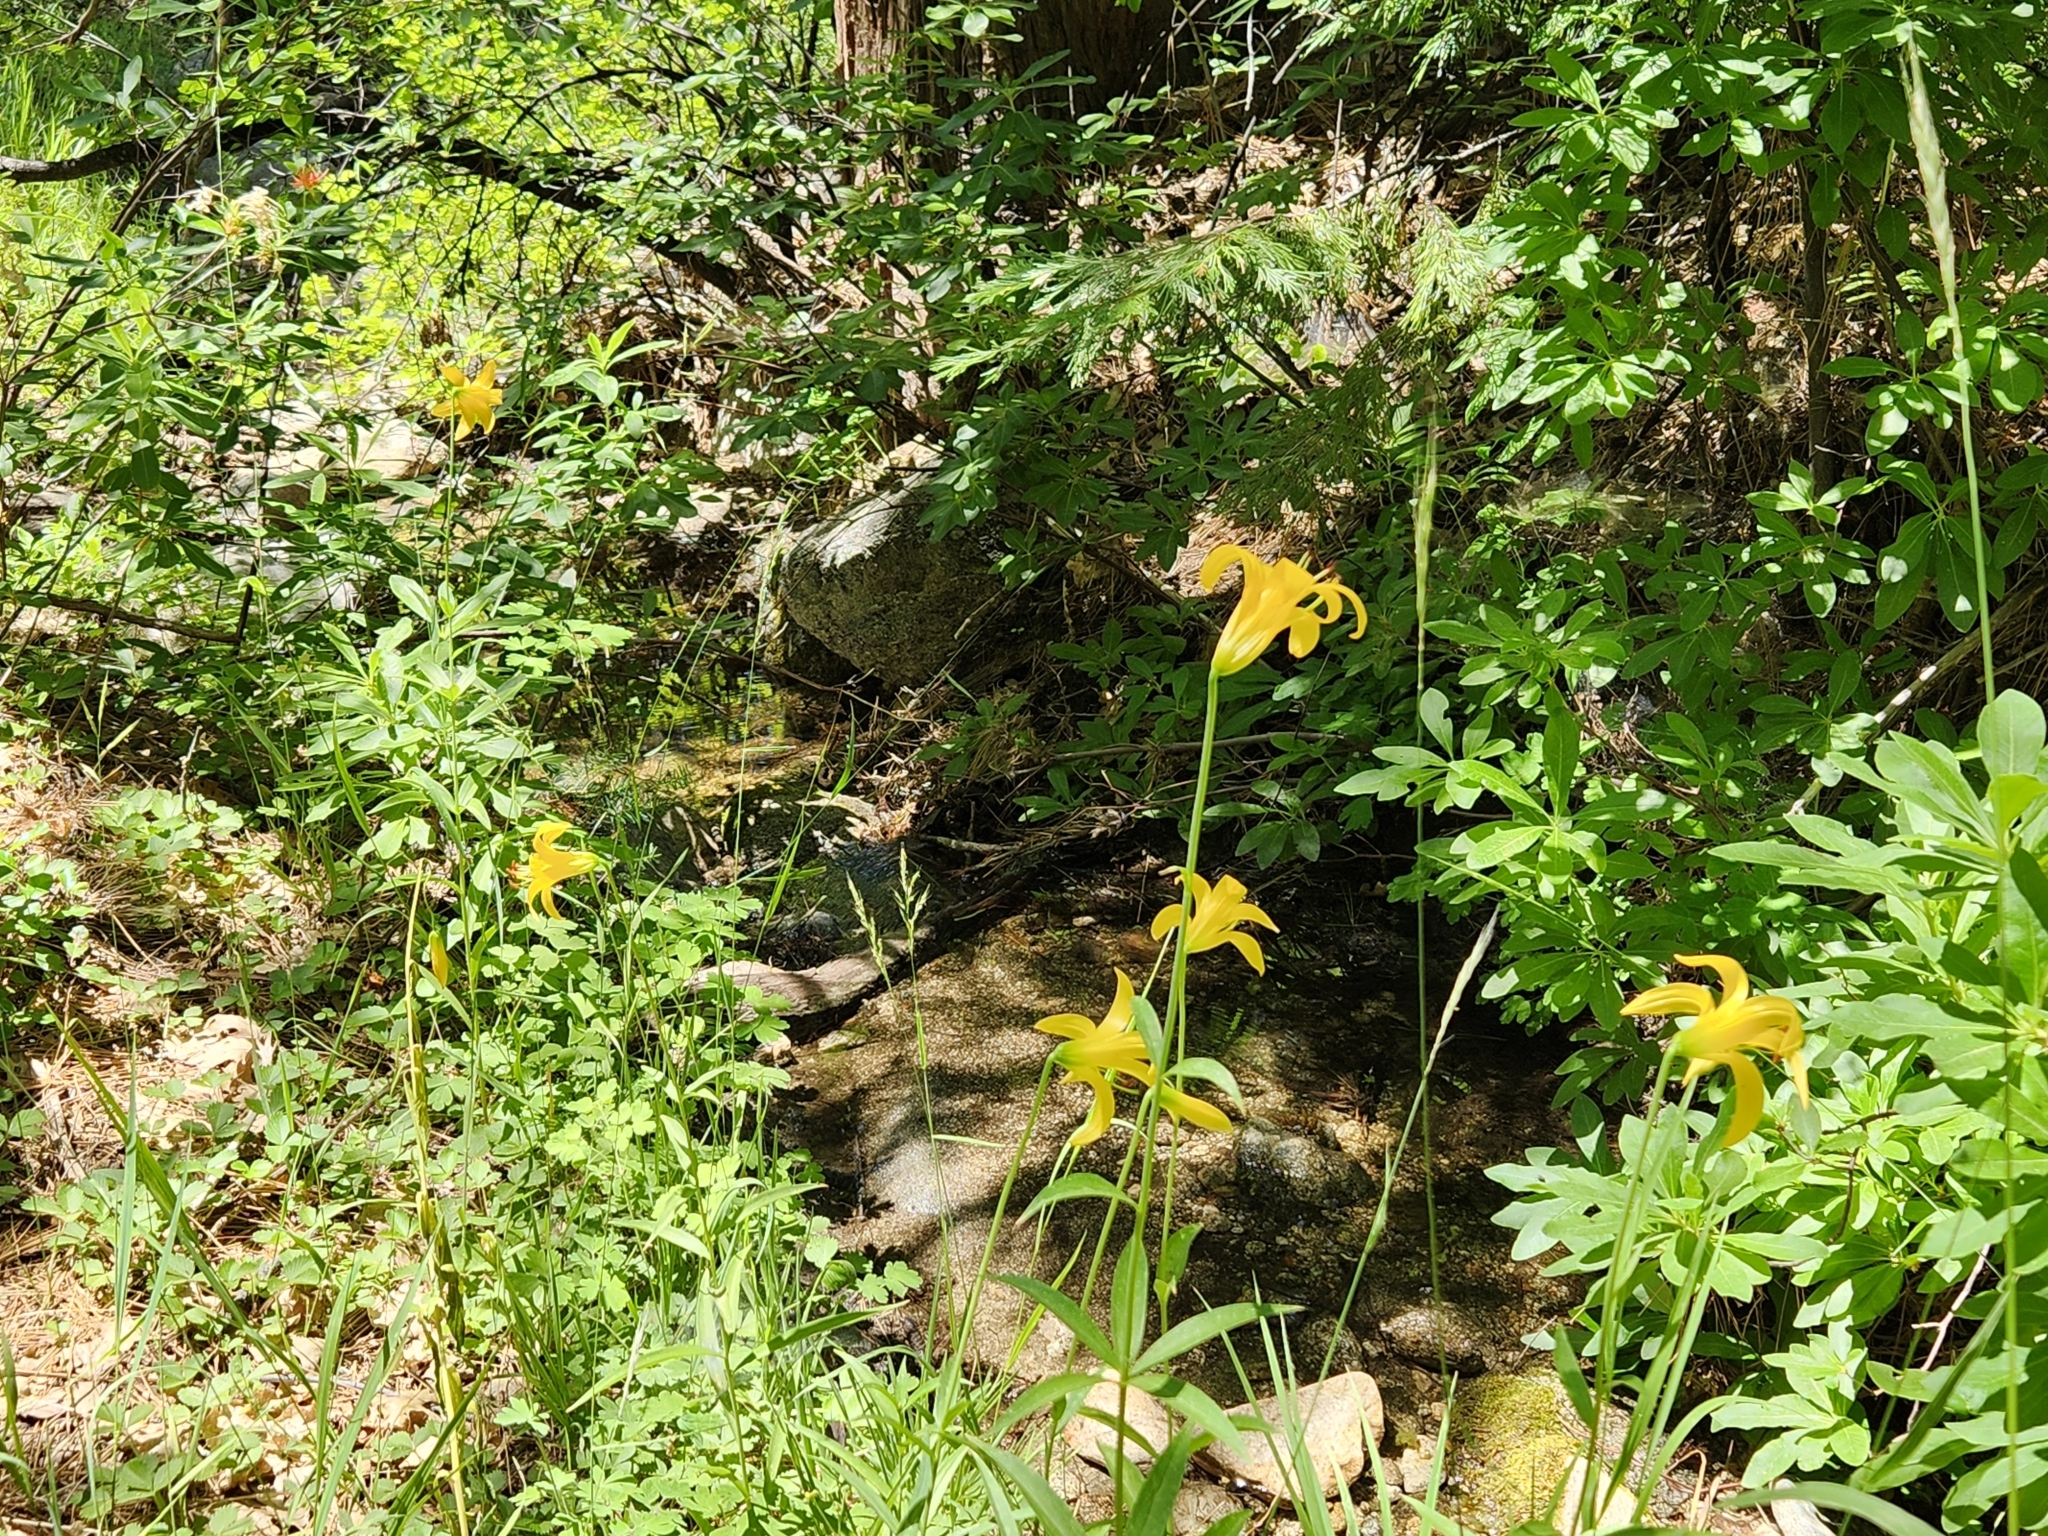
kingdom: Plantae
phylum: Tracheophyta
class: Liliopsida
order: Liliales
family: Liliaceae
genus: Lilium
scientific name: Lilium parryi
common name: Lemon lily
